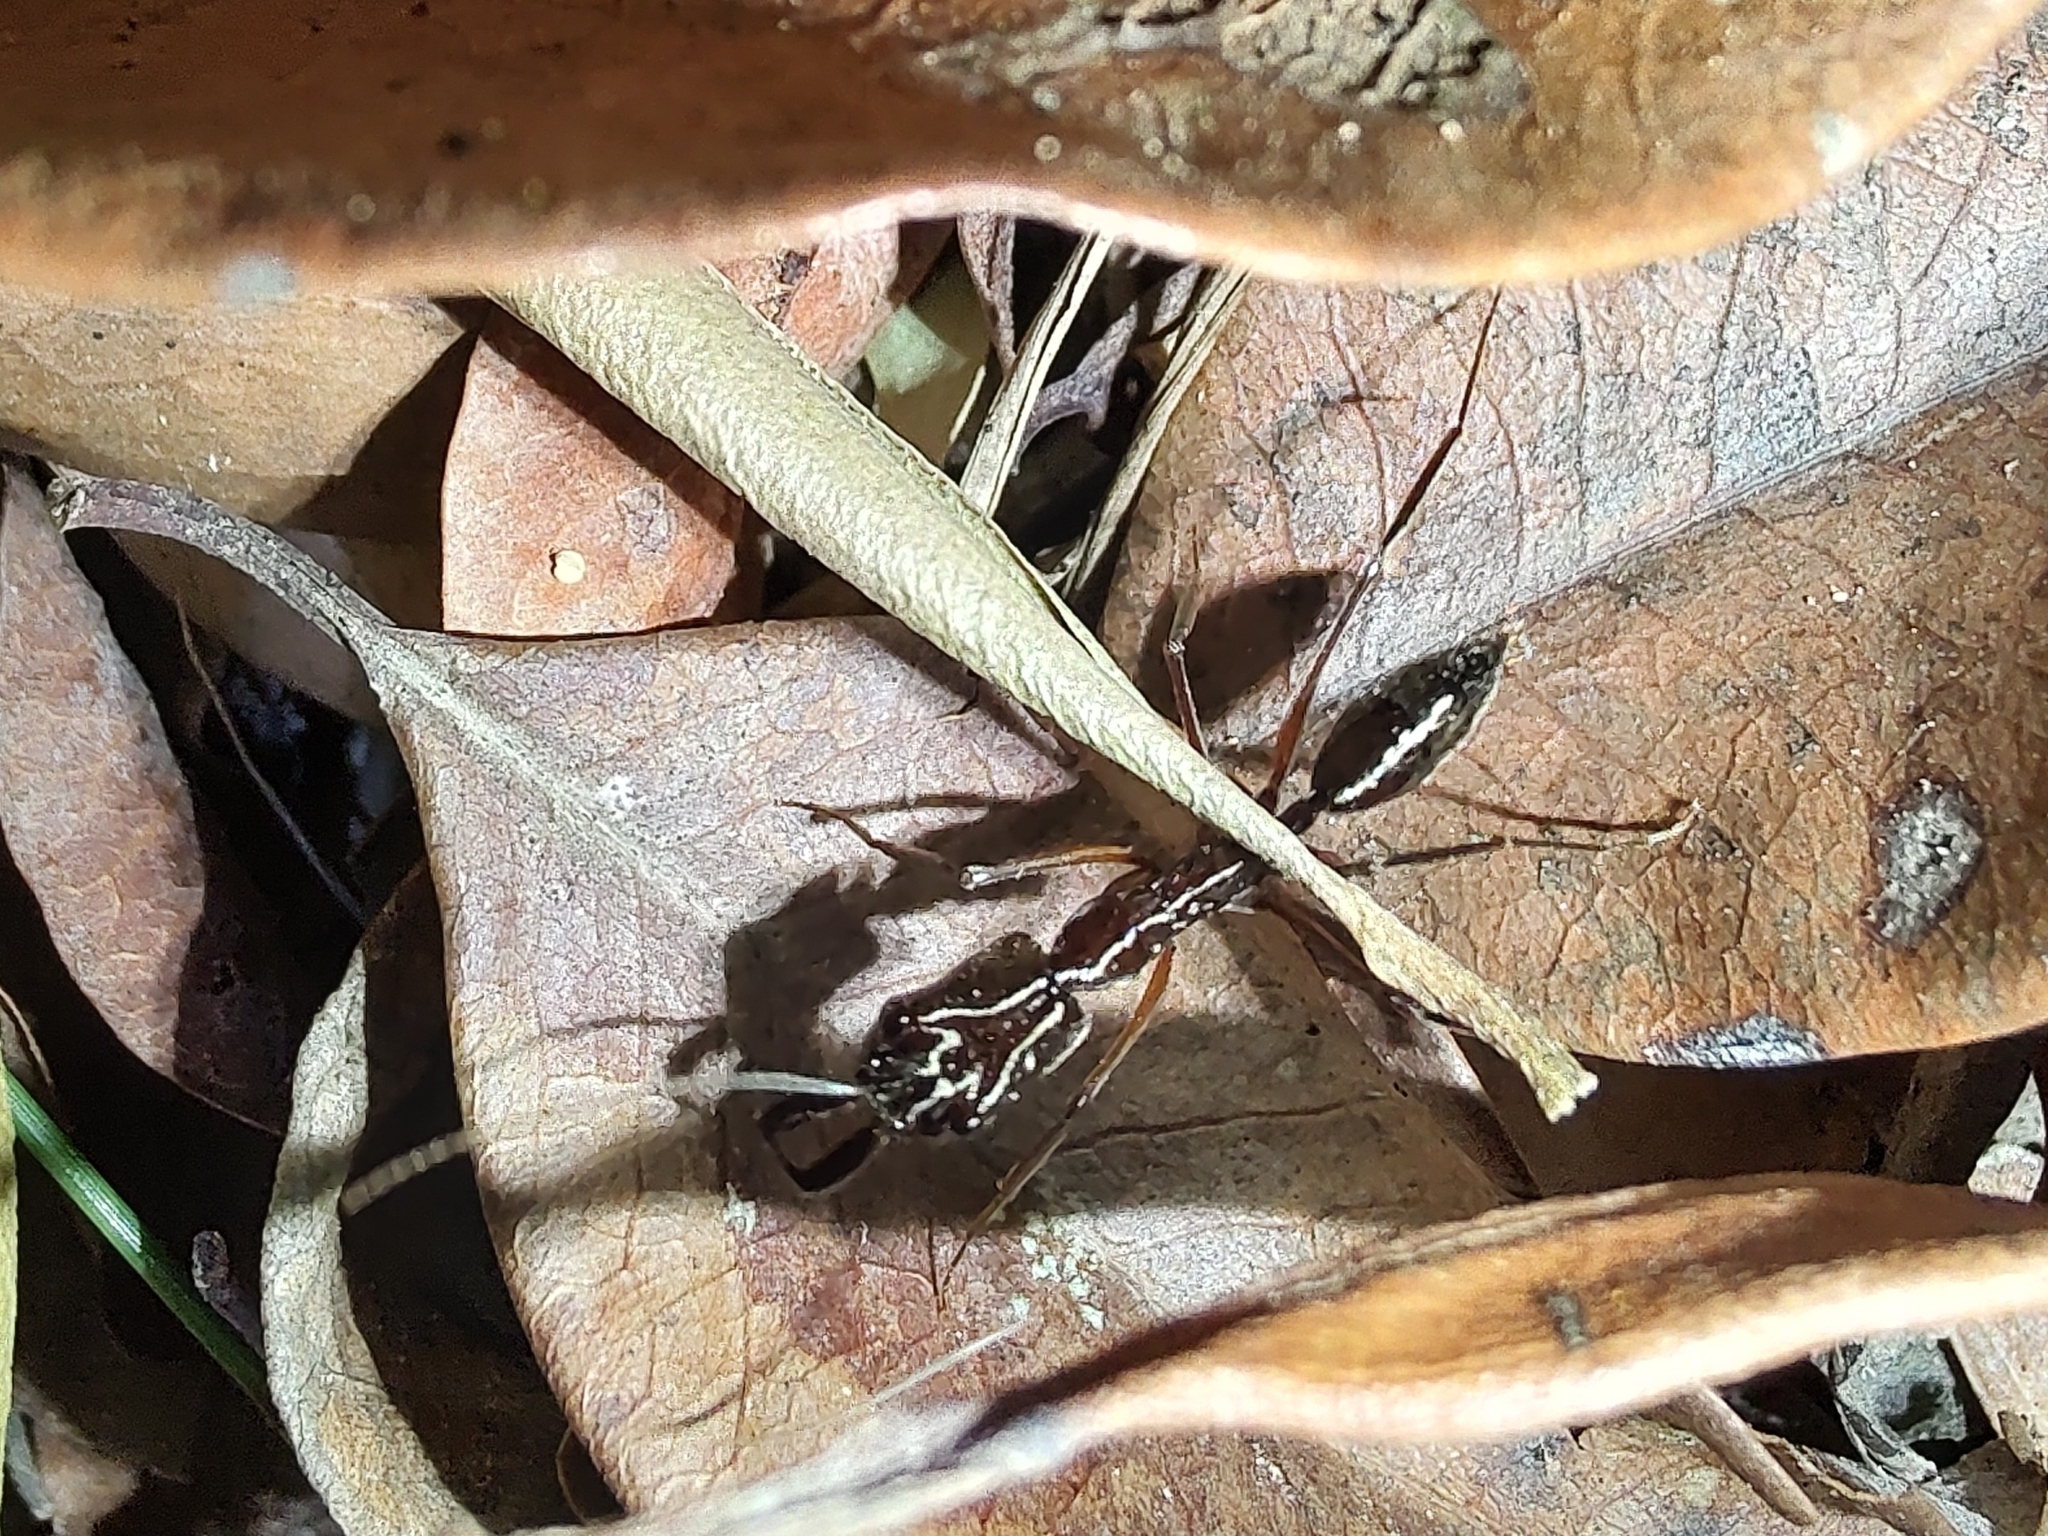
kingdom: Animalia
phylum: Arthropoda
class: Insecta
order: Hymenoptera
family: Formicidae
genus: Odontomachus
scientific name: Odontomachus chelifer
